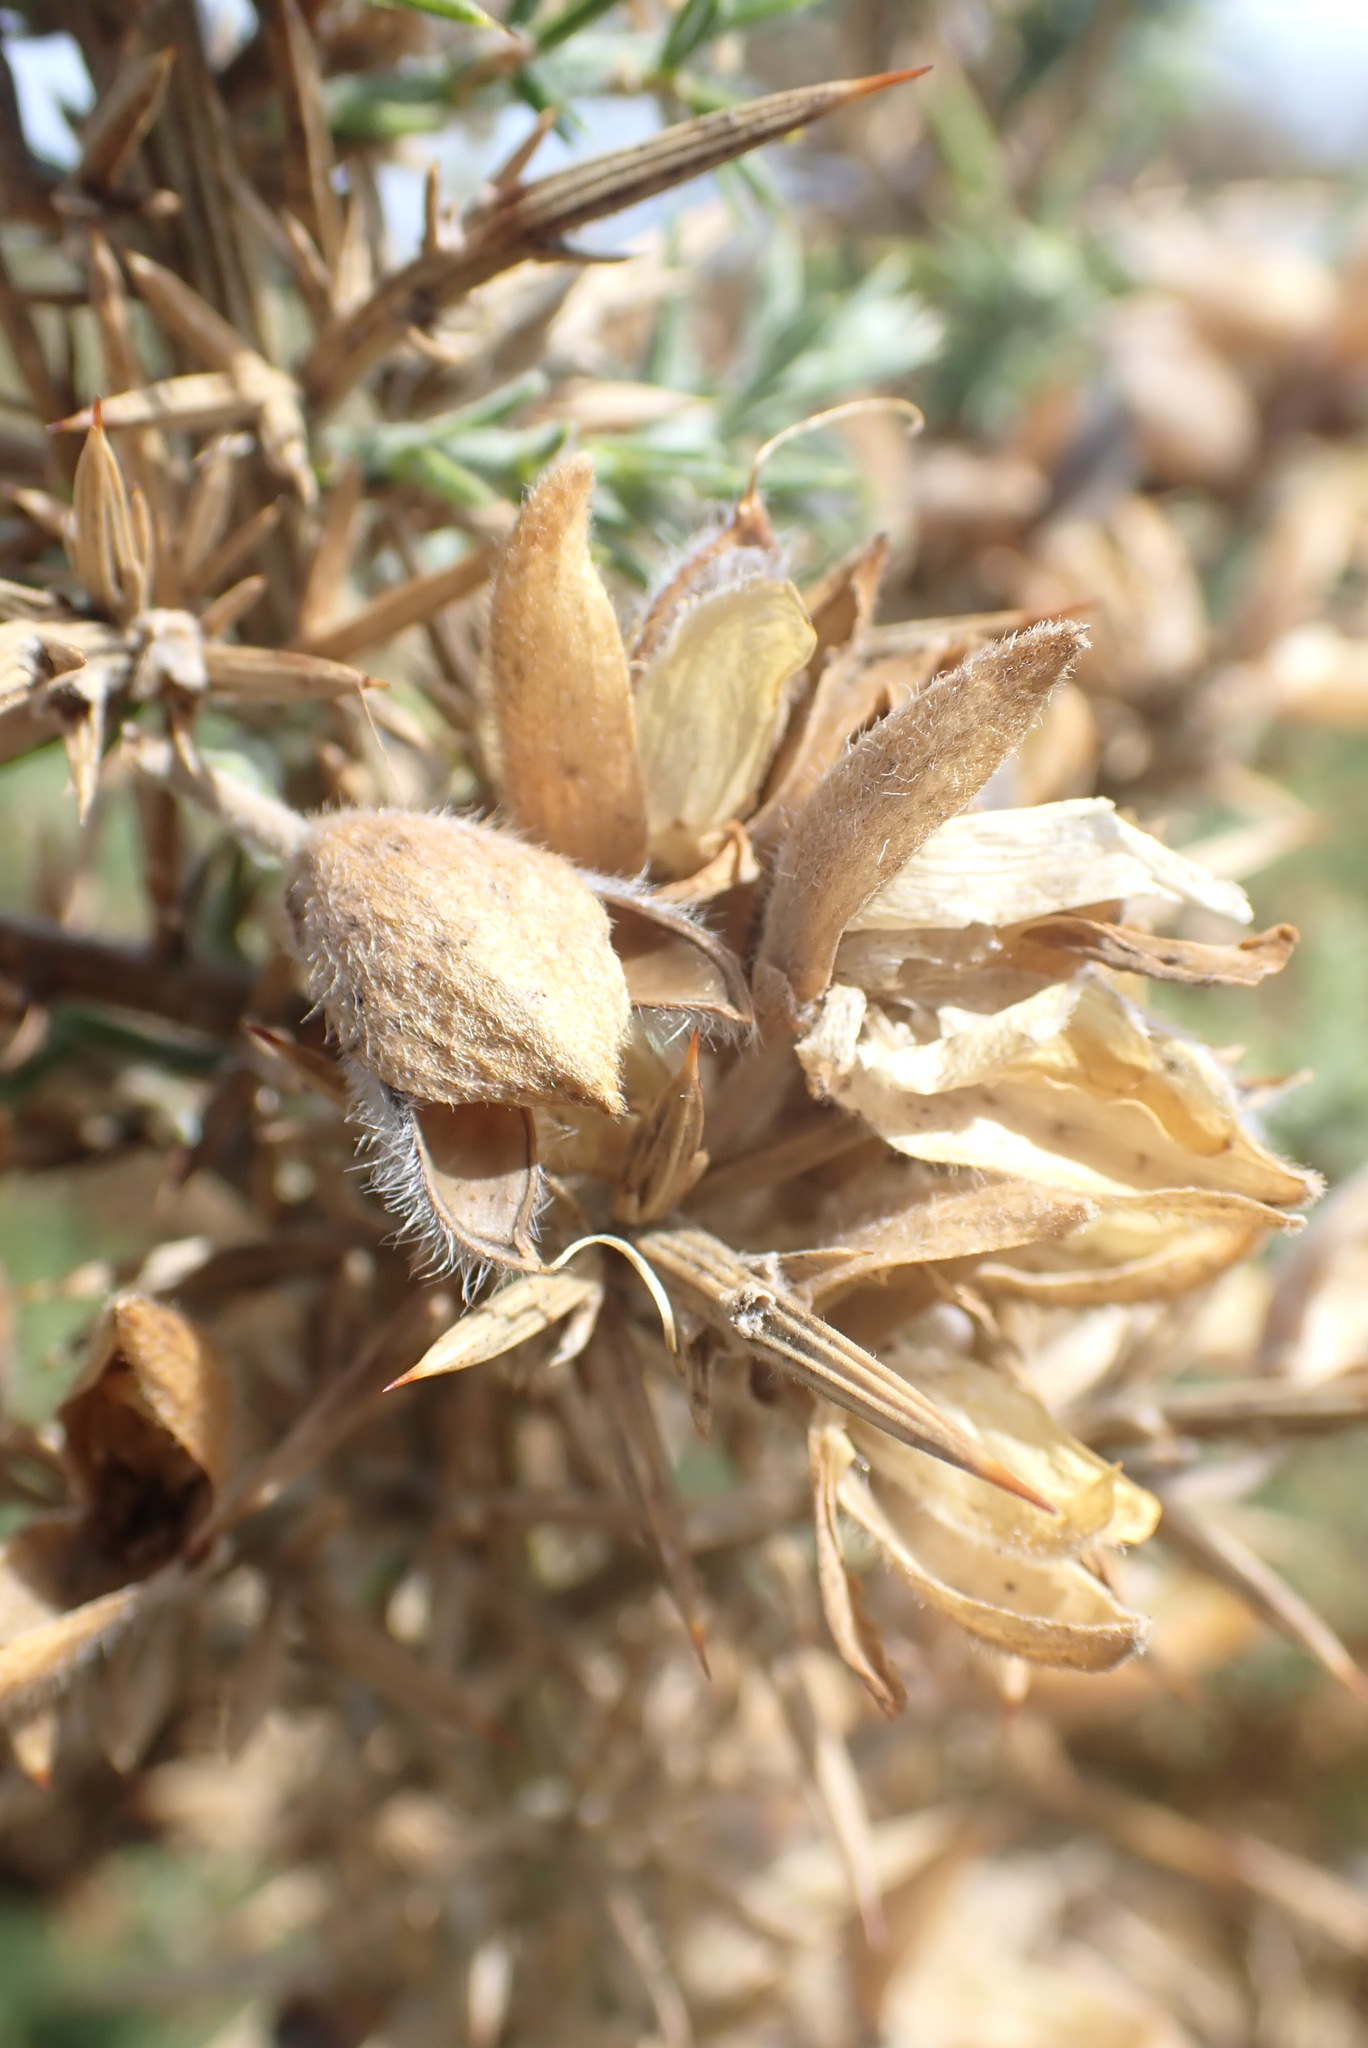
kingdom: Plantae
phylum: Tracheophyta
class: Magnoliopsida
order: Fabales
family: Fabaceae
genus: Ulex
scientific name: Ulex europaeus
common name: Common gorse
